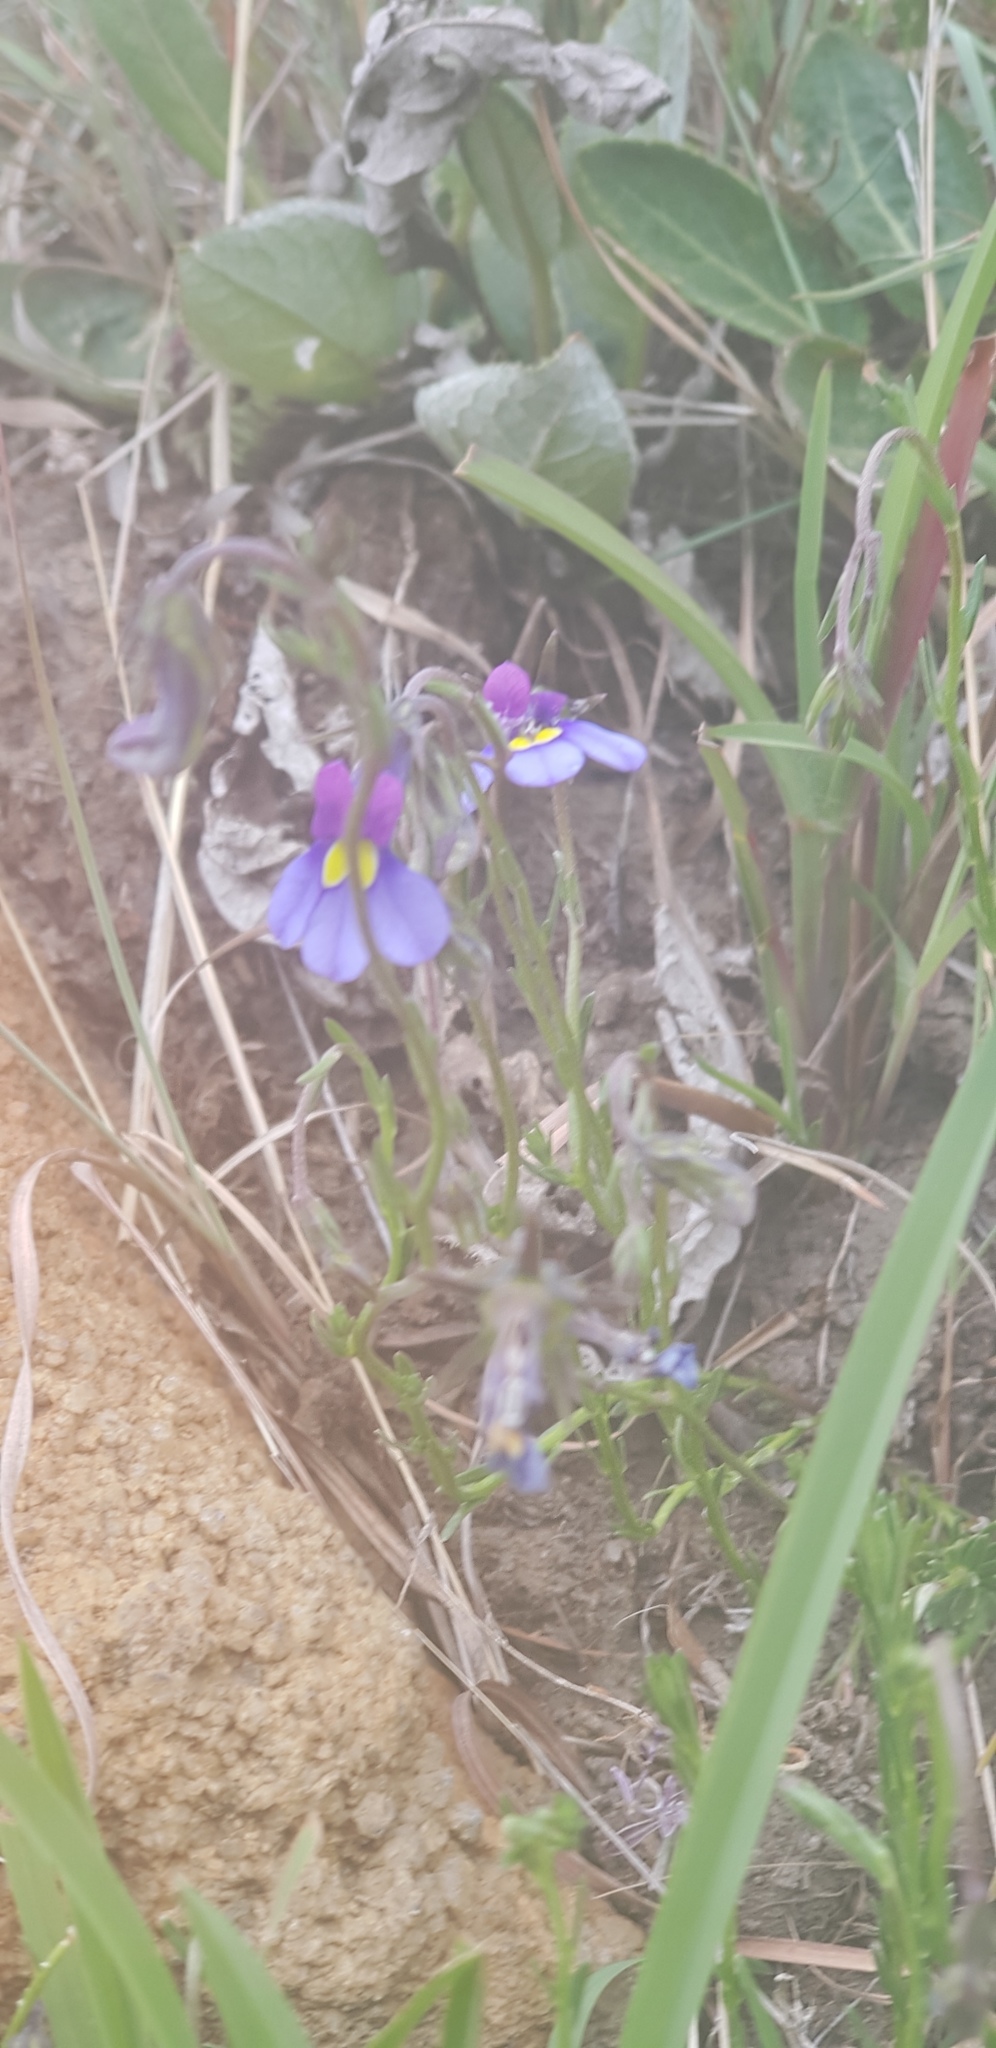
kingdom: Plantae
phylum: Tracheophyta
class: Magnoliopsida
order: Asterales
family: Campanulaceae
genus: Monopsis
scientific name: Monopsis decipiens
